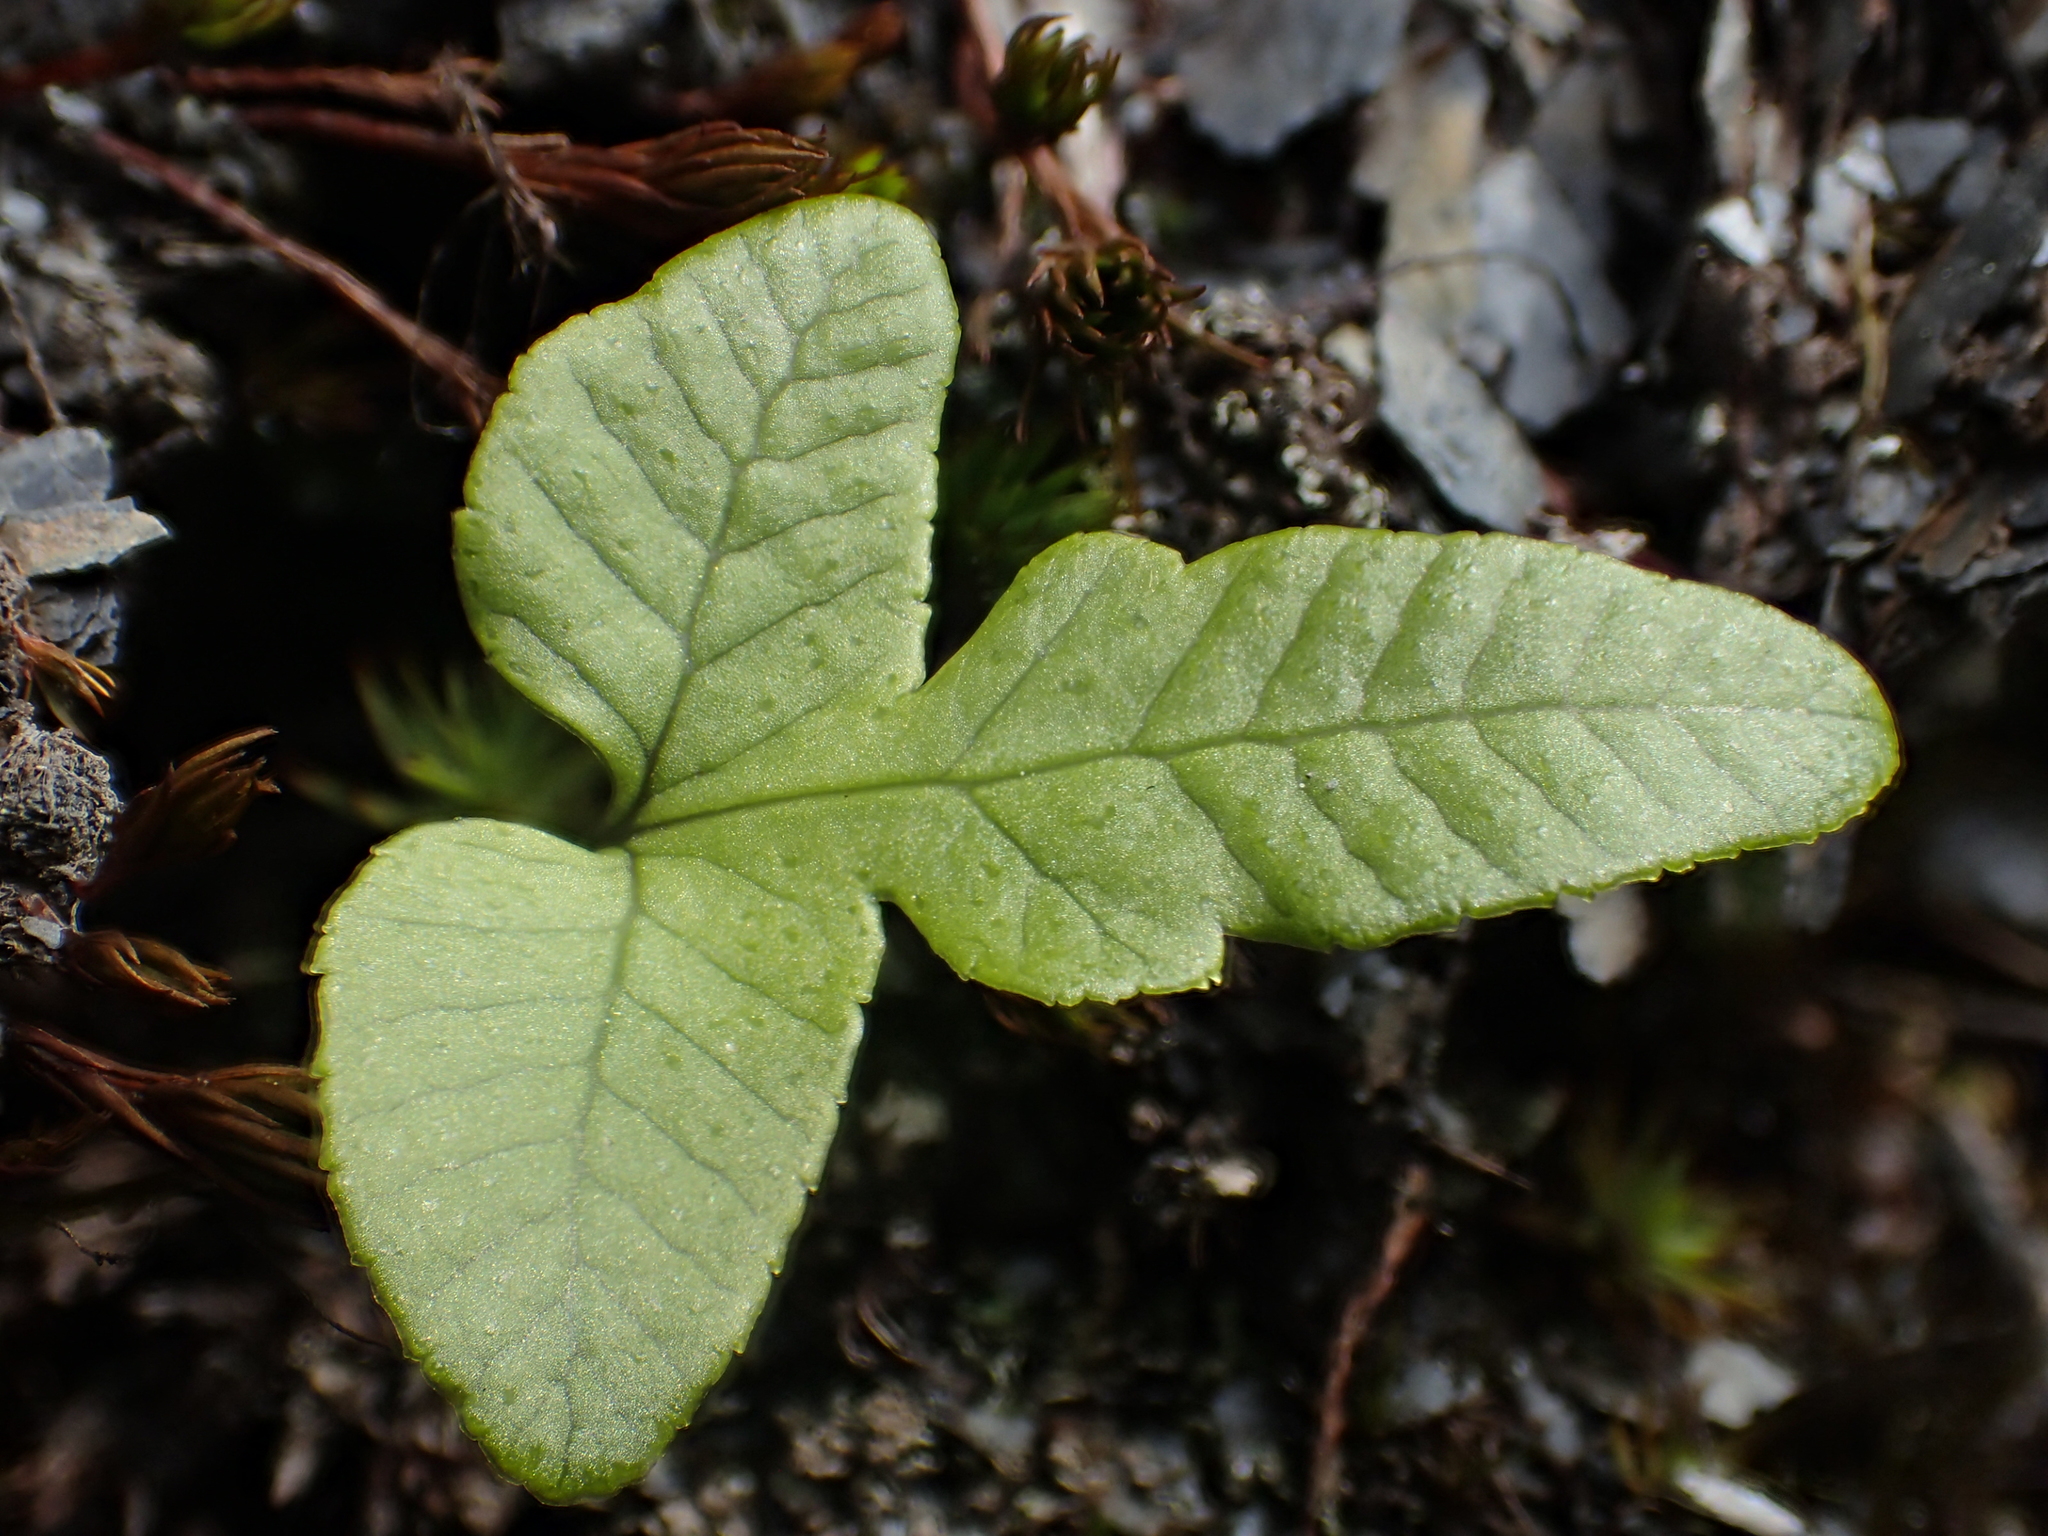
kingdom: Plantae
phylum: Tracheophyta
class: Polypodiopsida
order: Polypodiales
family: Polypodiaceae
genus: Selliguea
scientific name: Selliguea quasidivaricata
